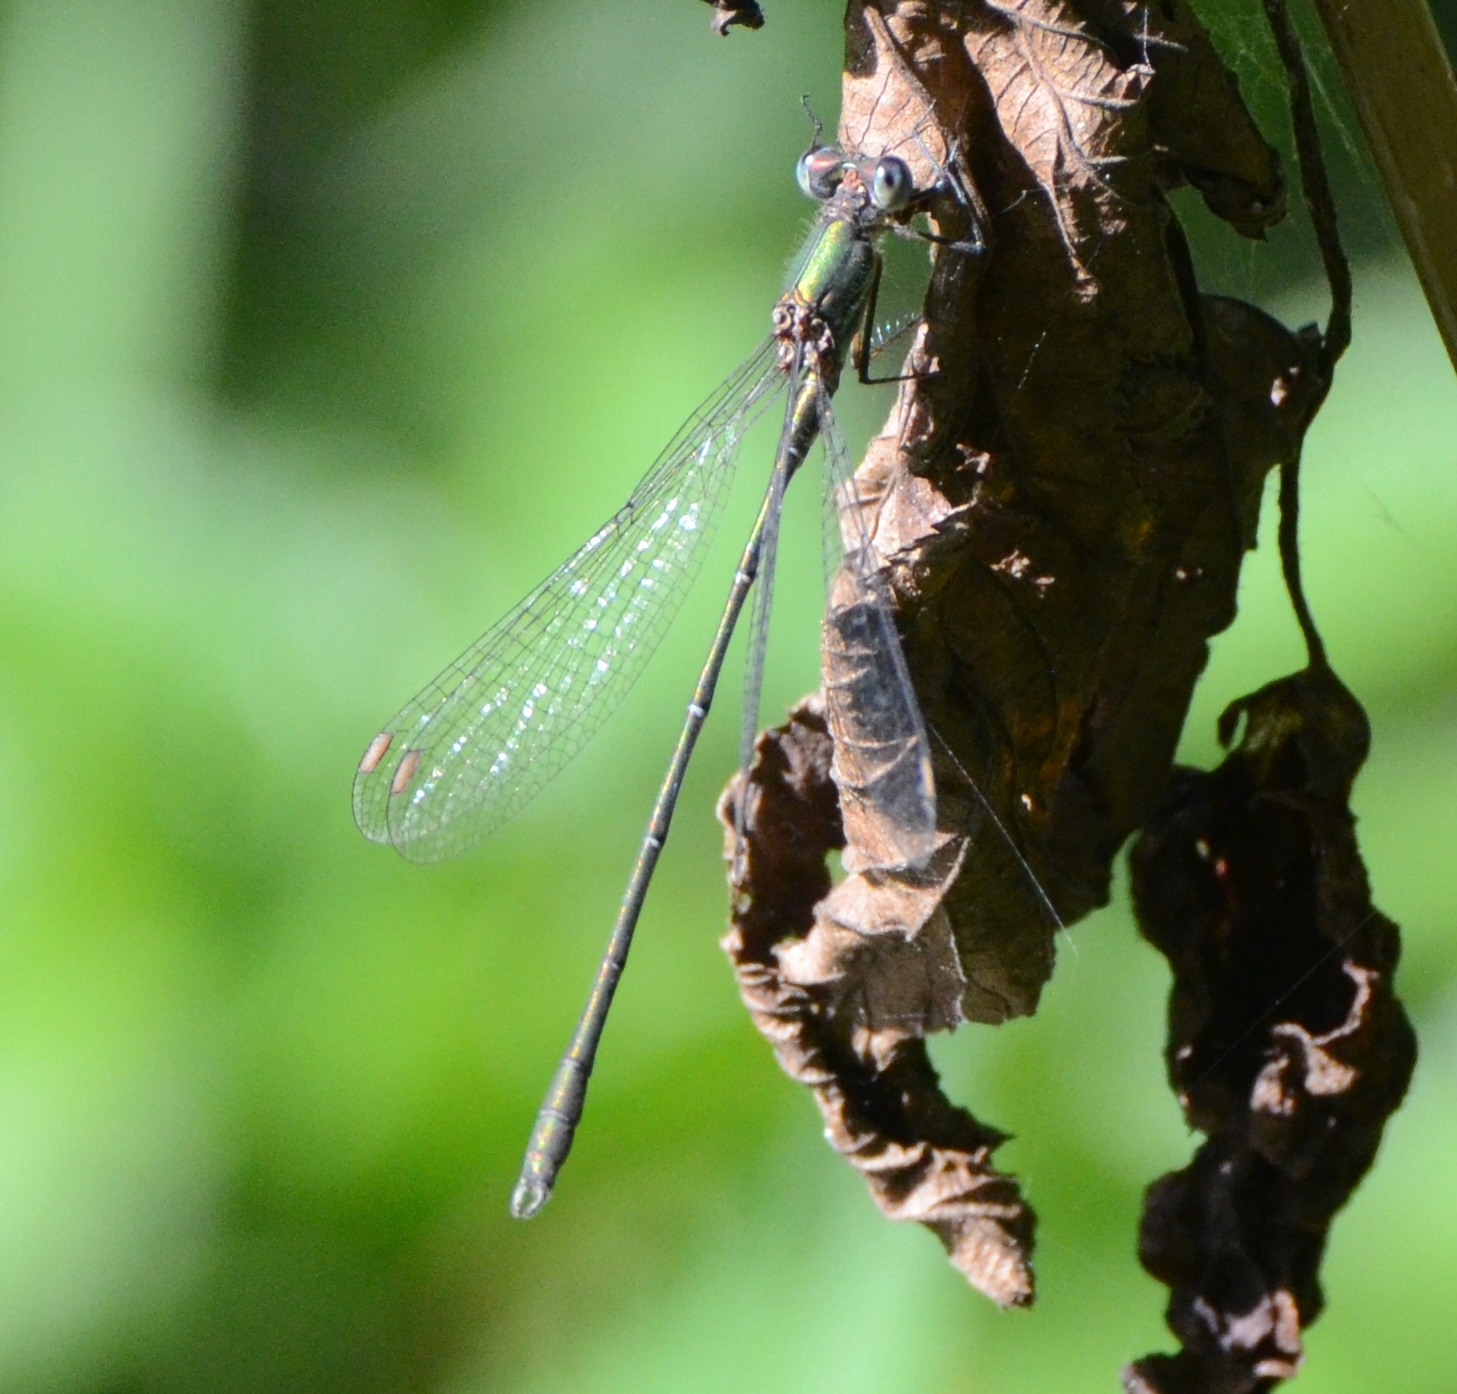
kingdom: Animalia
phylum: Arthropoda
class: Insecta
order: Odonata
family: Lestidae
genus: Chalcolestes
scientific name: Chalcolestes viridis
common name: Green emerald damselfly
